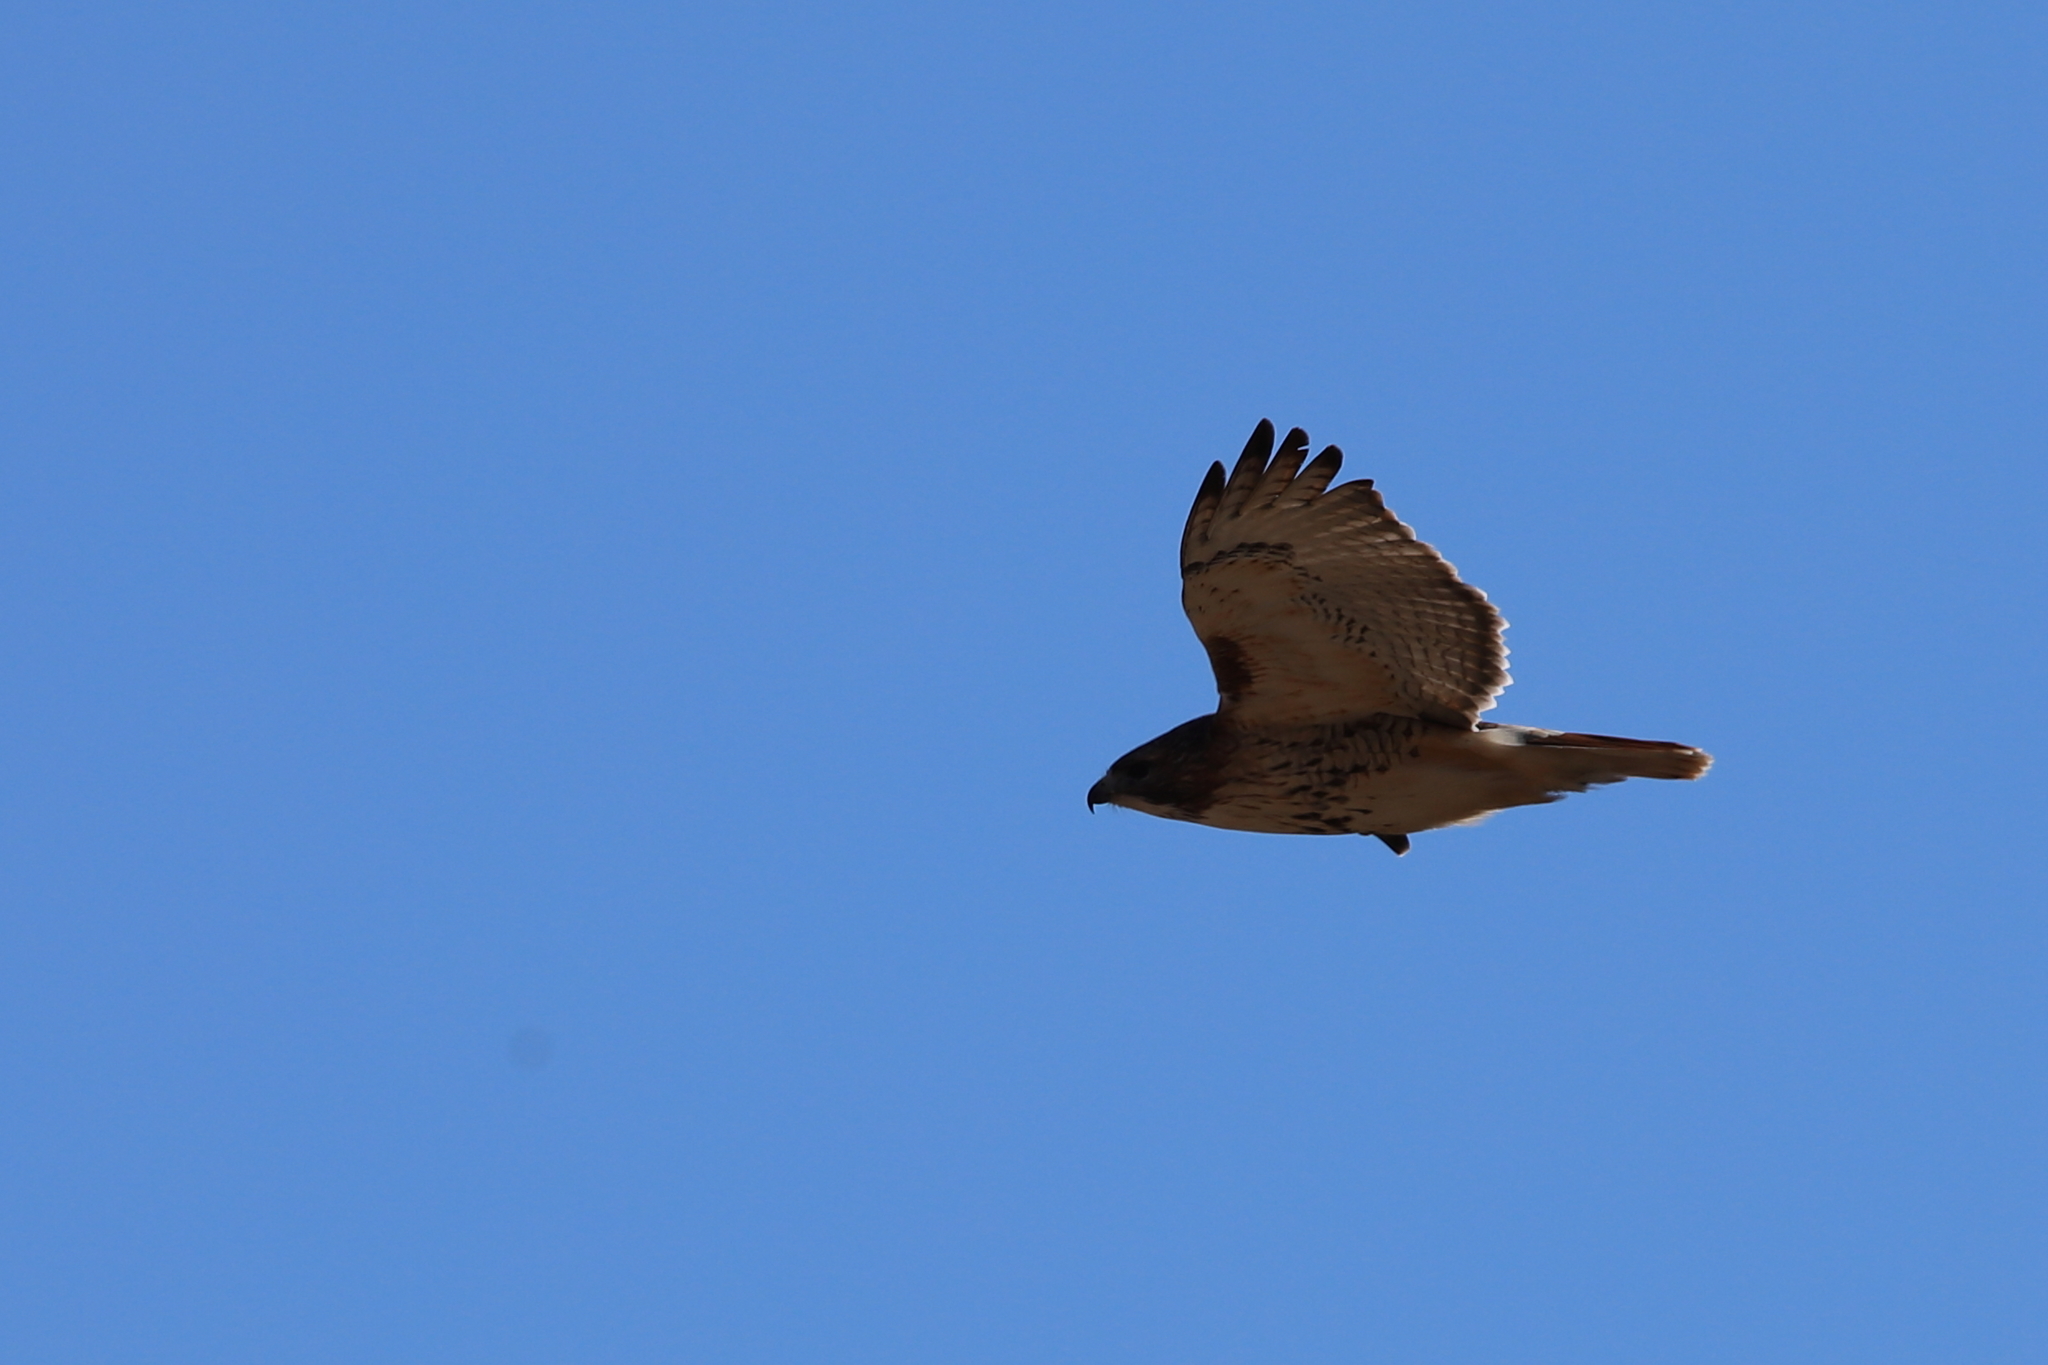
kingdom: Animalia
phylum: Chordata
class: Aves
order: Accipitriformes
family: Accipitridae
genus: Buteo
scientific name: Buteo jamaicensis
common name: Red-tailed hawk
